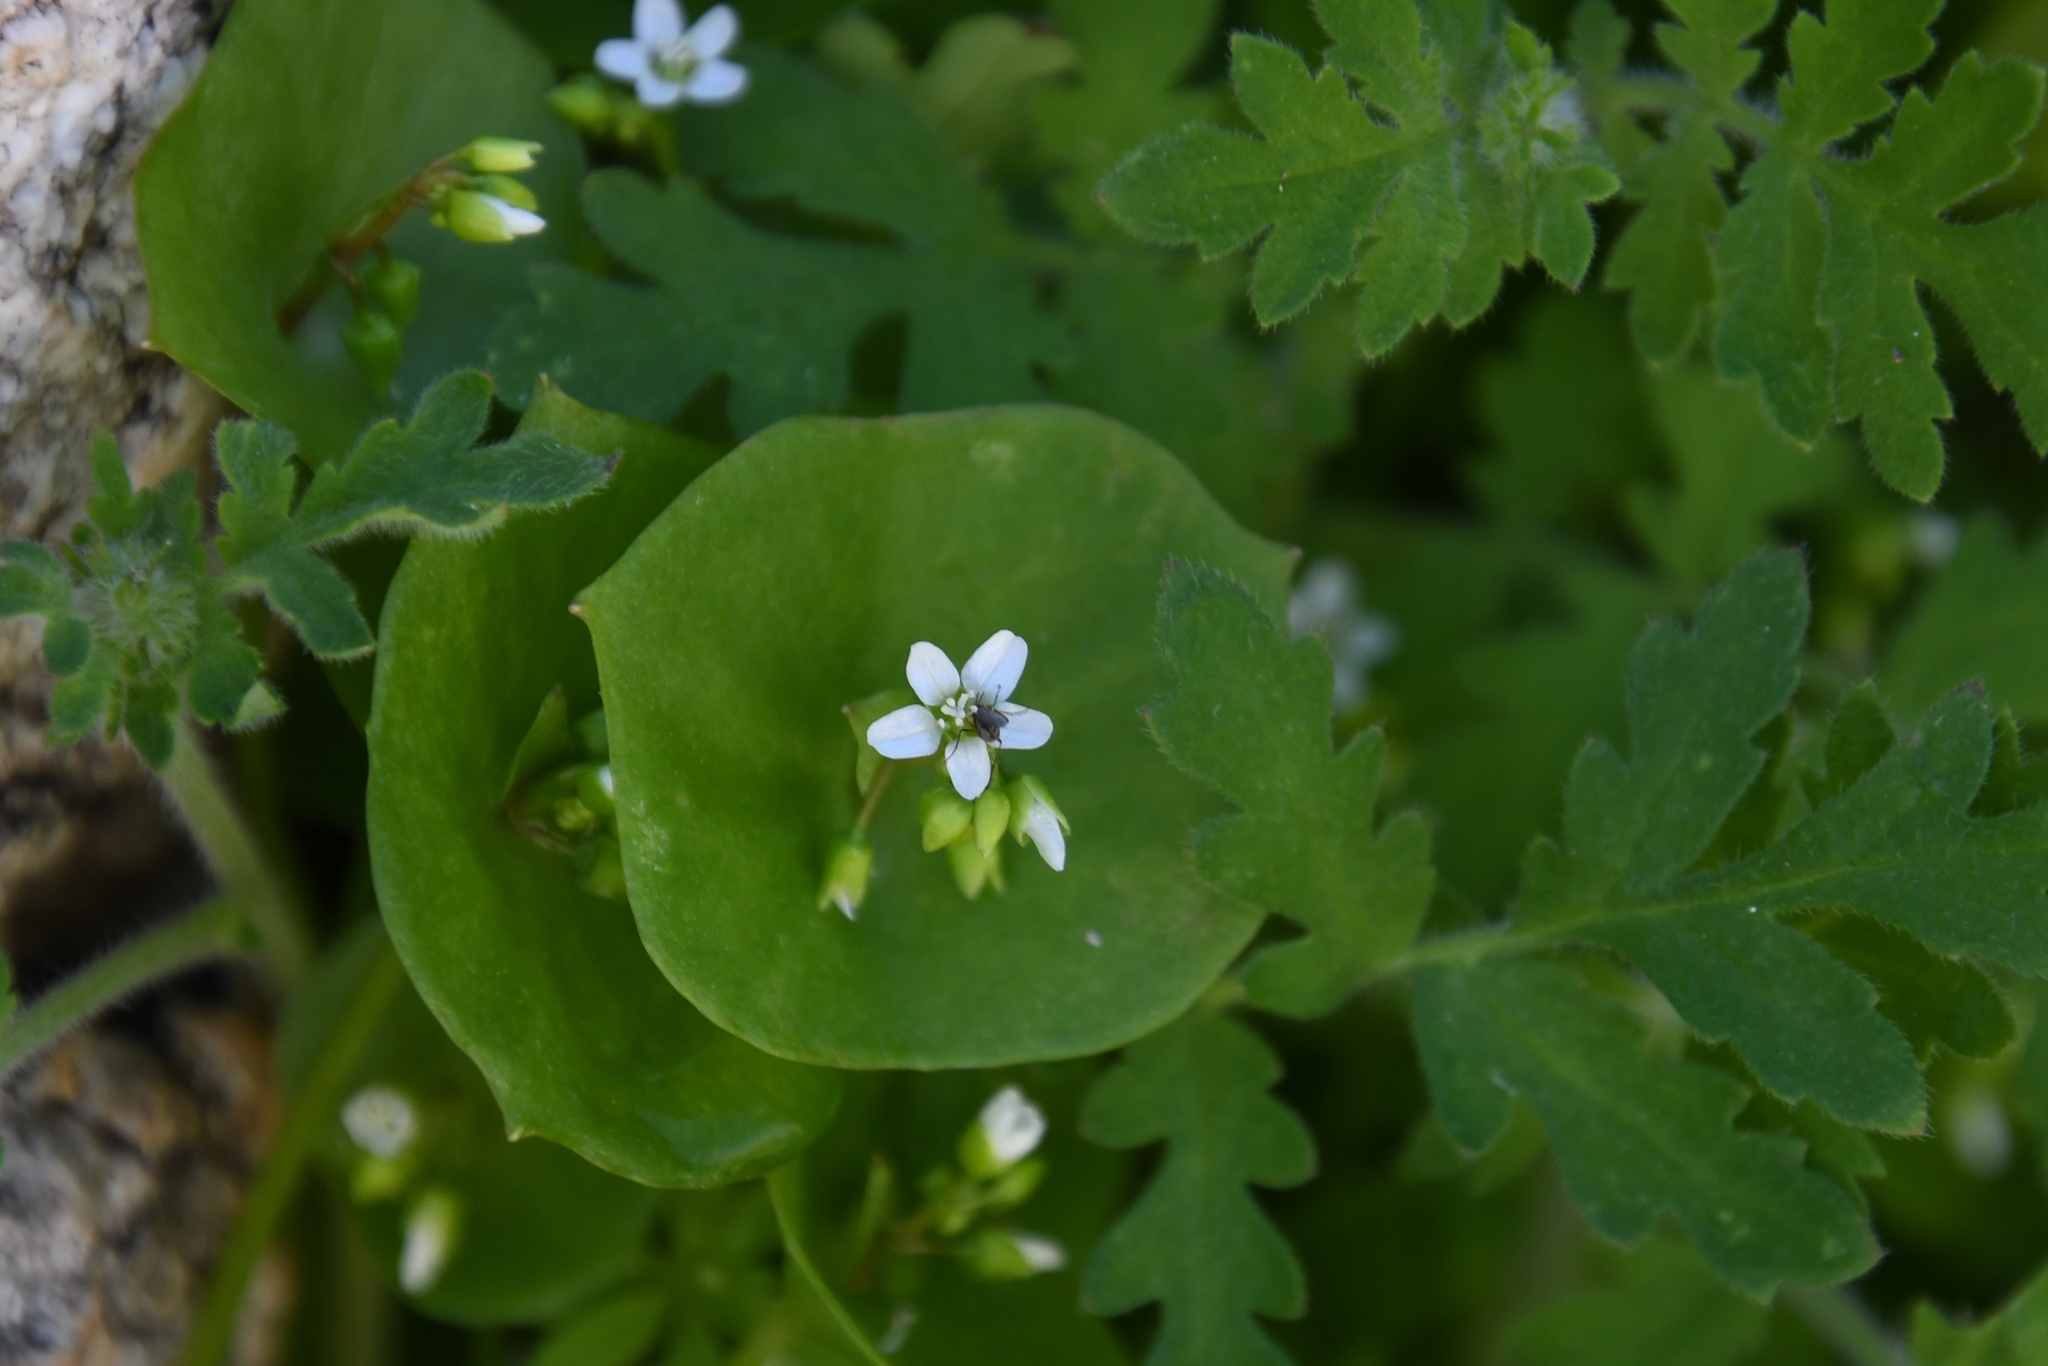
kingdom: Plantae
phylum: Tracheophyta
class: Magnoliopsida
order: Caryophyllales
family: Montiaceae
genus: Claytonia
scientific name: Claytonia perfoliata
